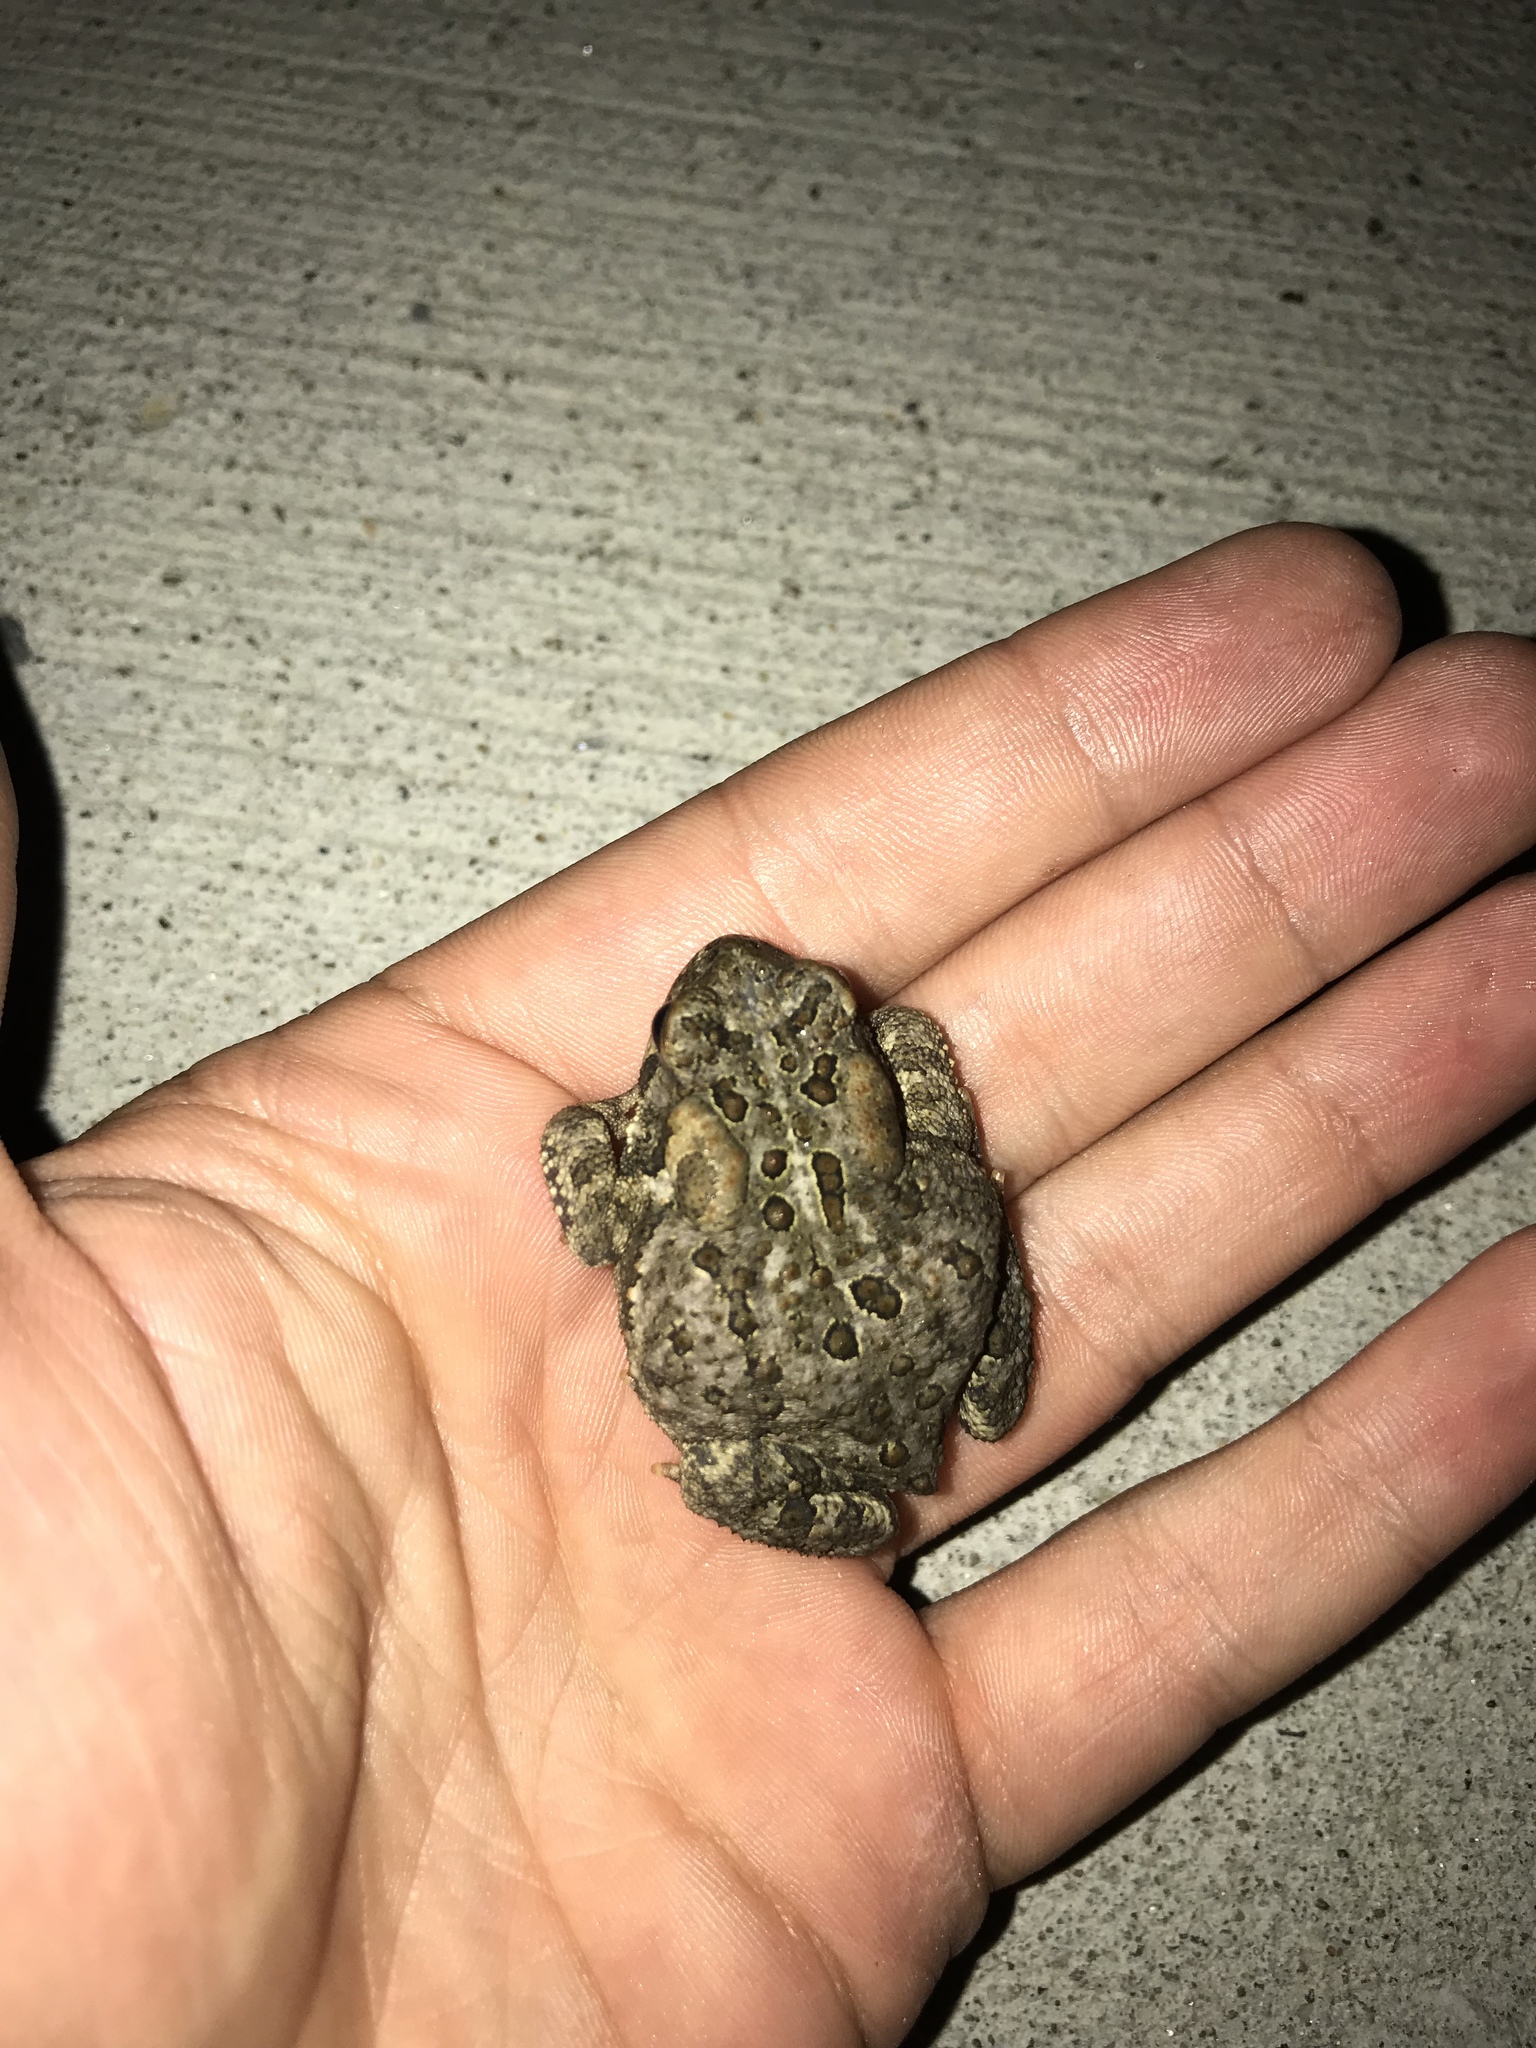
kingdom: Animalia
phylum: Chordata
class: Amphibia
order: Anura
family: Bufonidae
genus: Anaxyrus
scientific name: Anaxyrus americanus
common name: American toad
